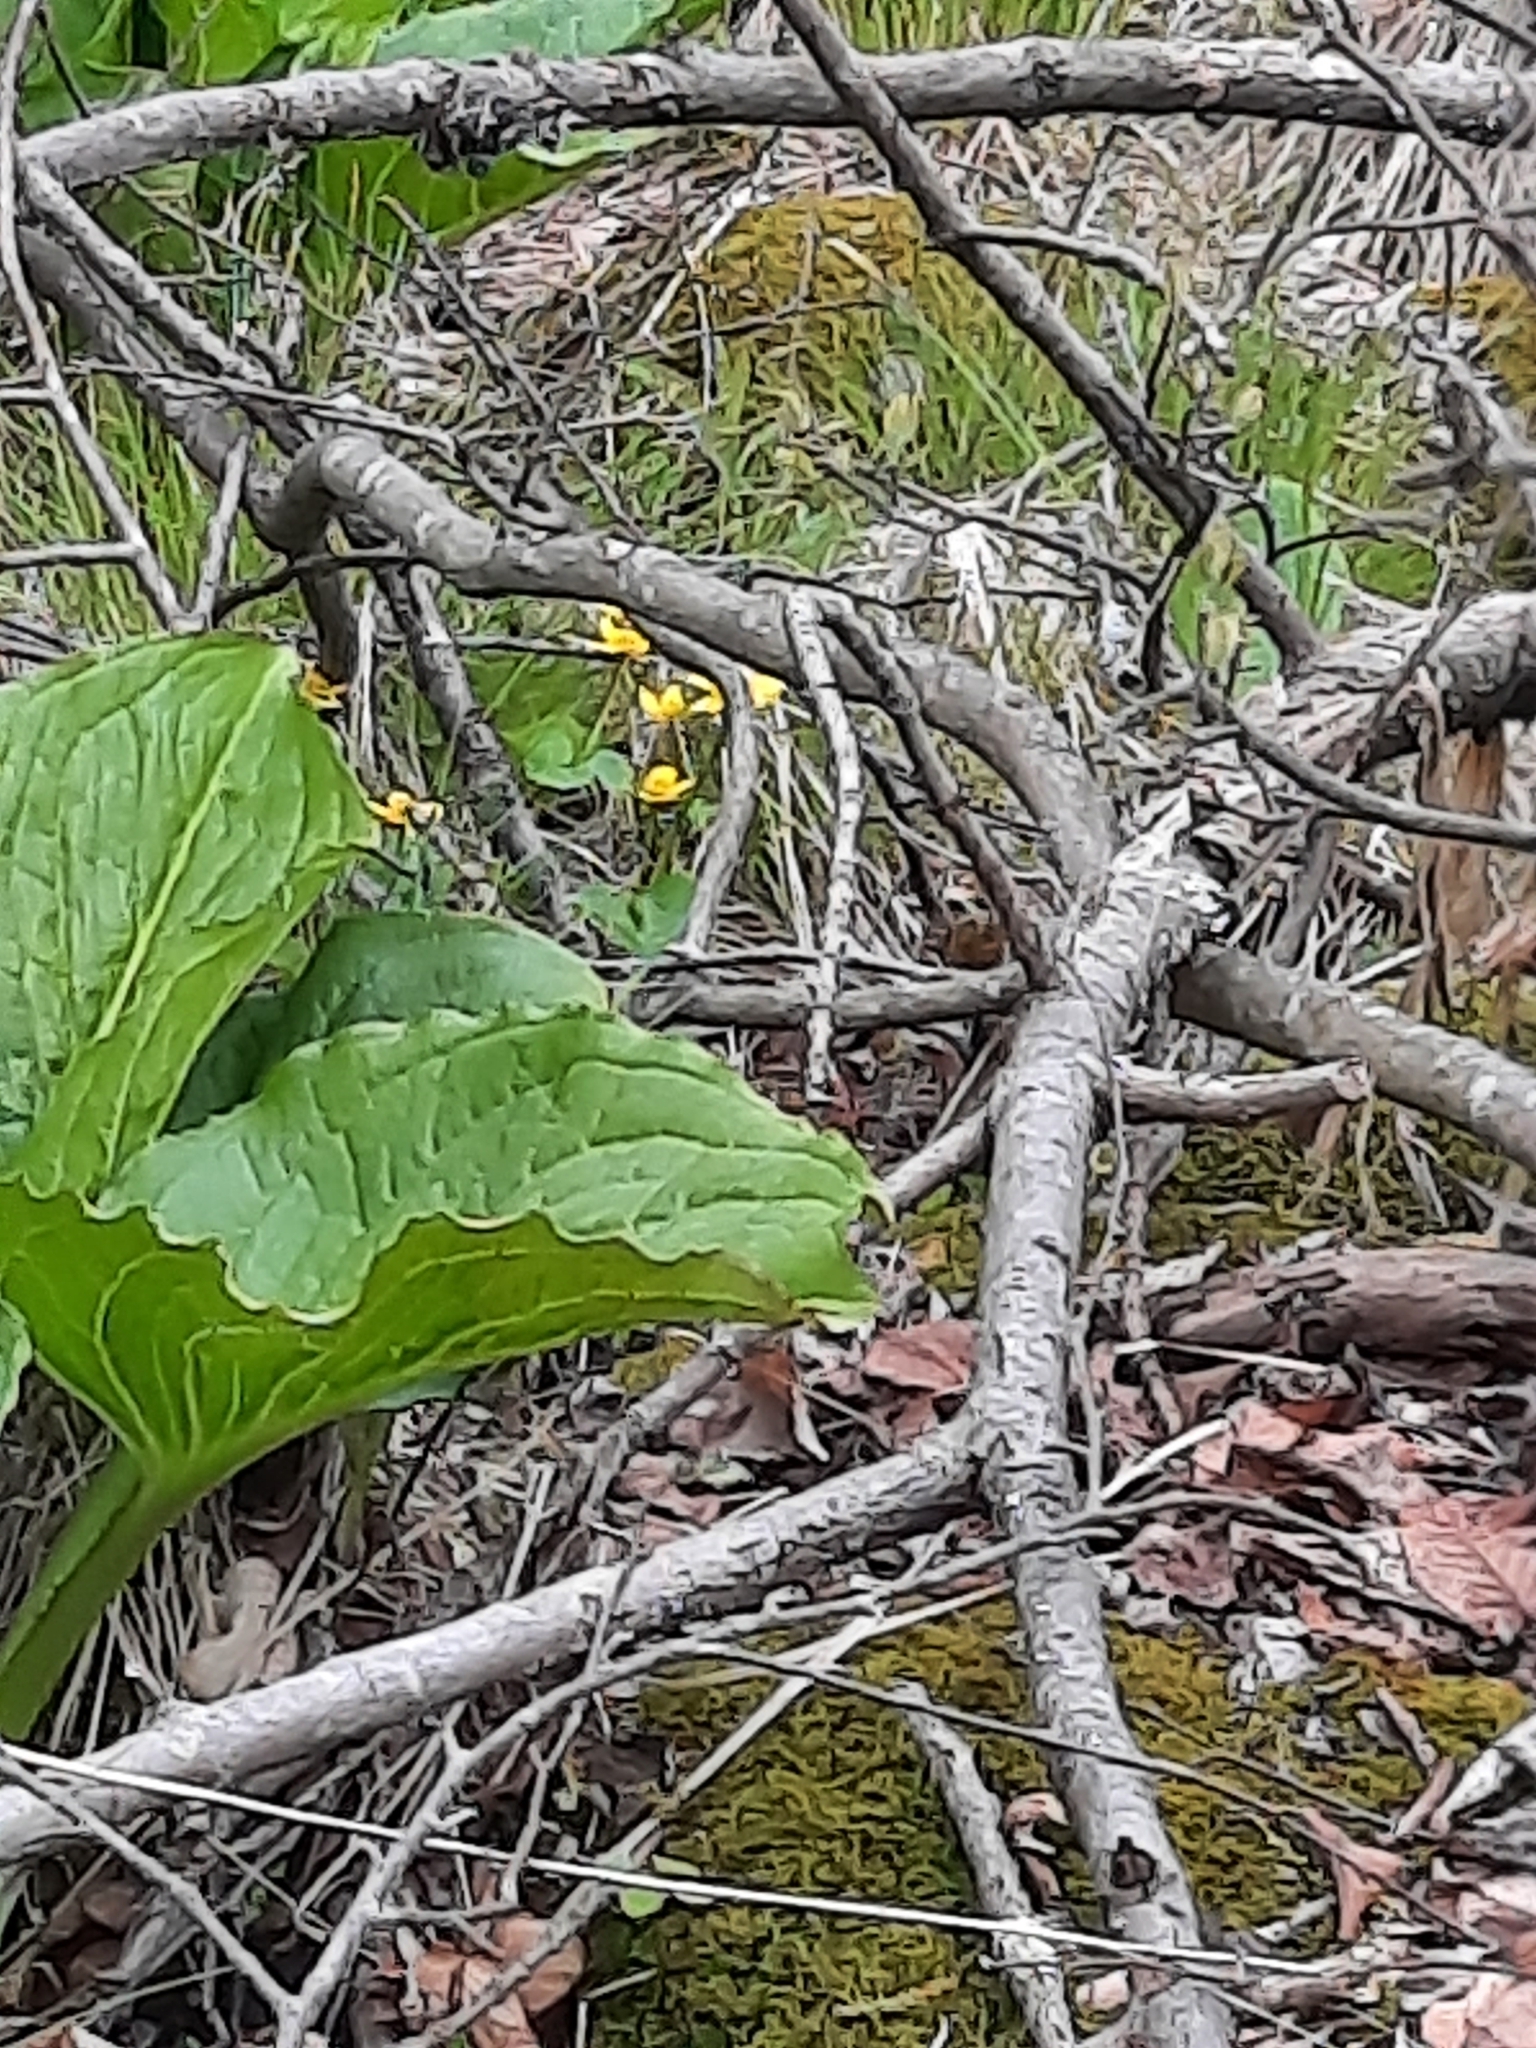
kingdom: Plantae
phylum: Tracheophyta
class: Magnoliopsida
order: Ranunculales
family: Ranunculaceae
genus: Caltha
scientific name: Caltha palustris
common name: Marsh marigold
